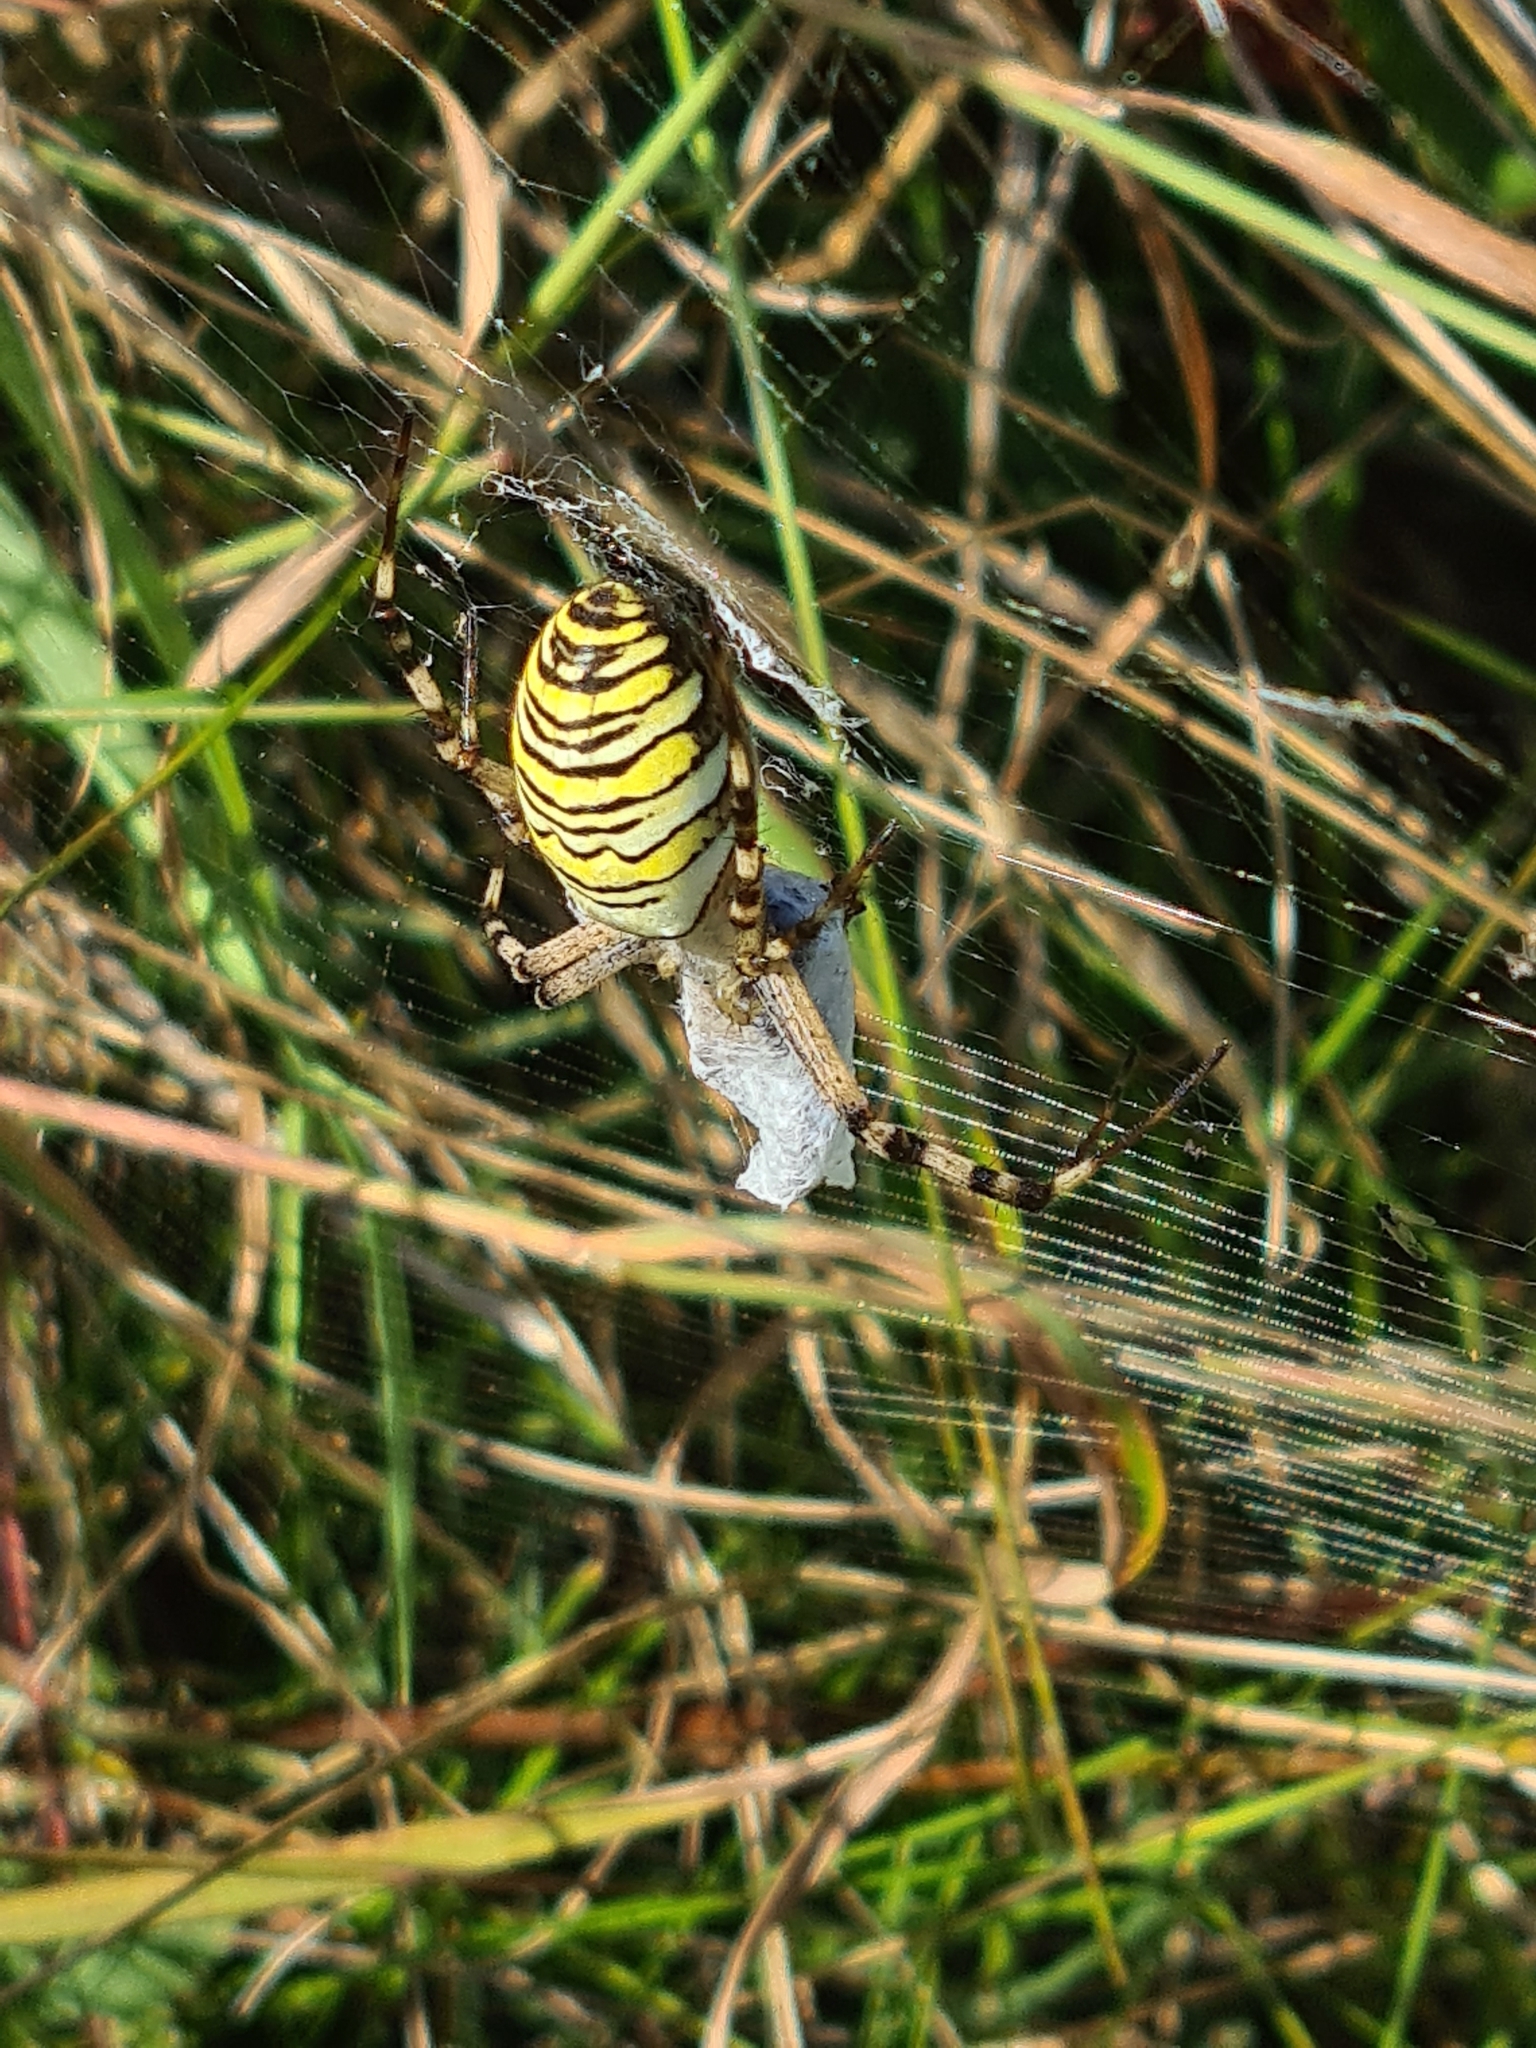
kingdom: Animalia
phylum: Arthropoda
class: Arachnida
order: Araneae
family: Araneidae
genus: Argiope
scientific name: Argiope bruennichi
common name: Wasp spider
